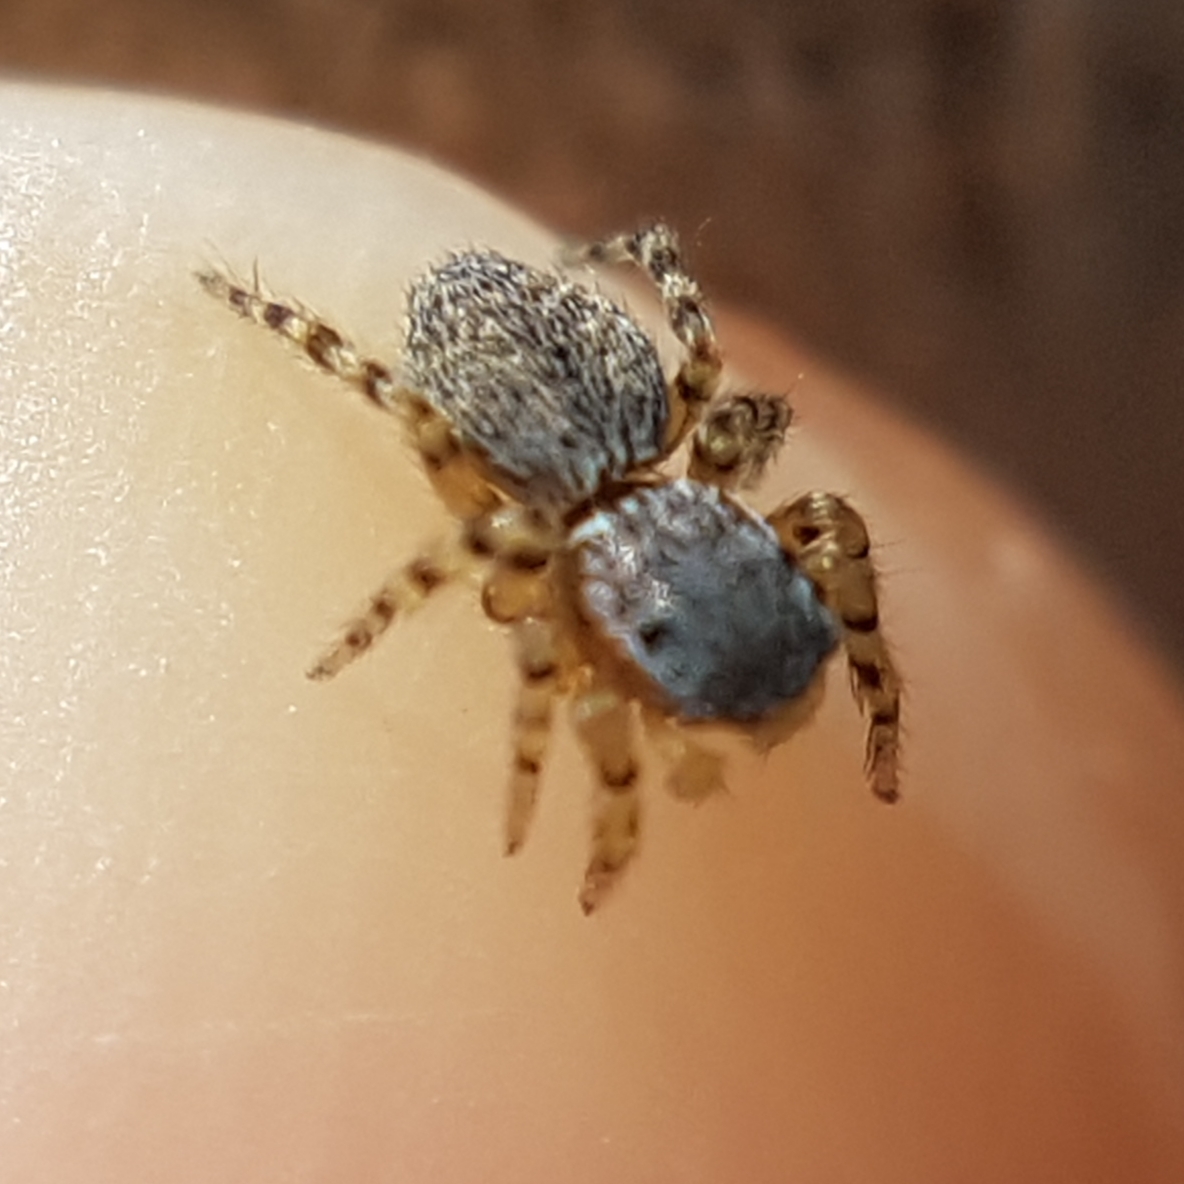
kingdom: Animalia
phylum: Arthropoda
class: Arachnida
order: Araneae
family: Salticidae
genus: Talavera
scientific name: Talavera aequipes
